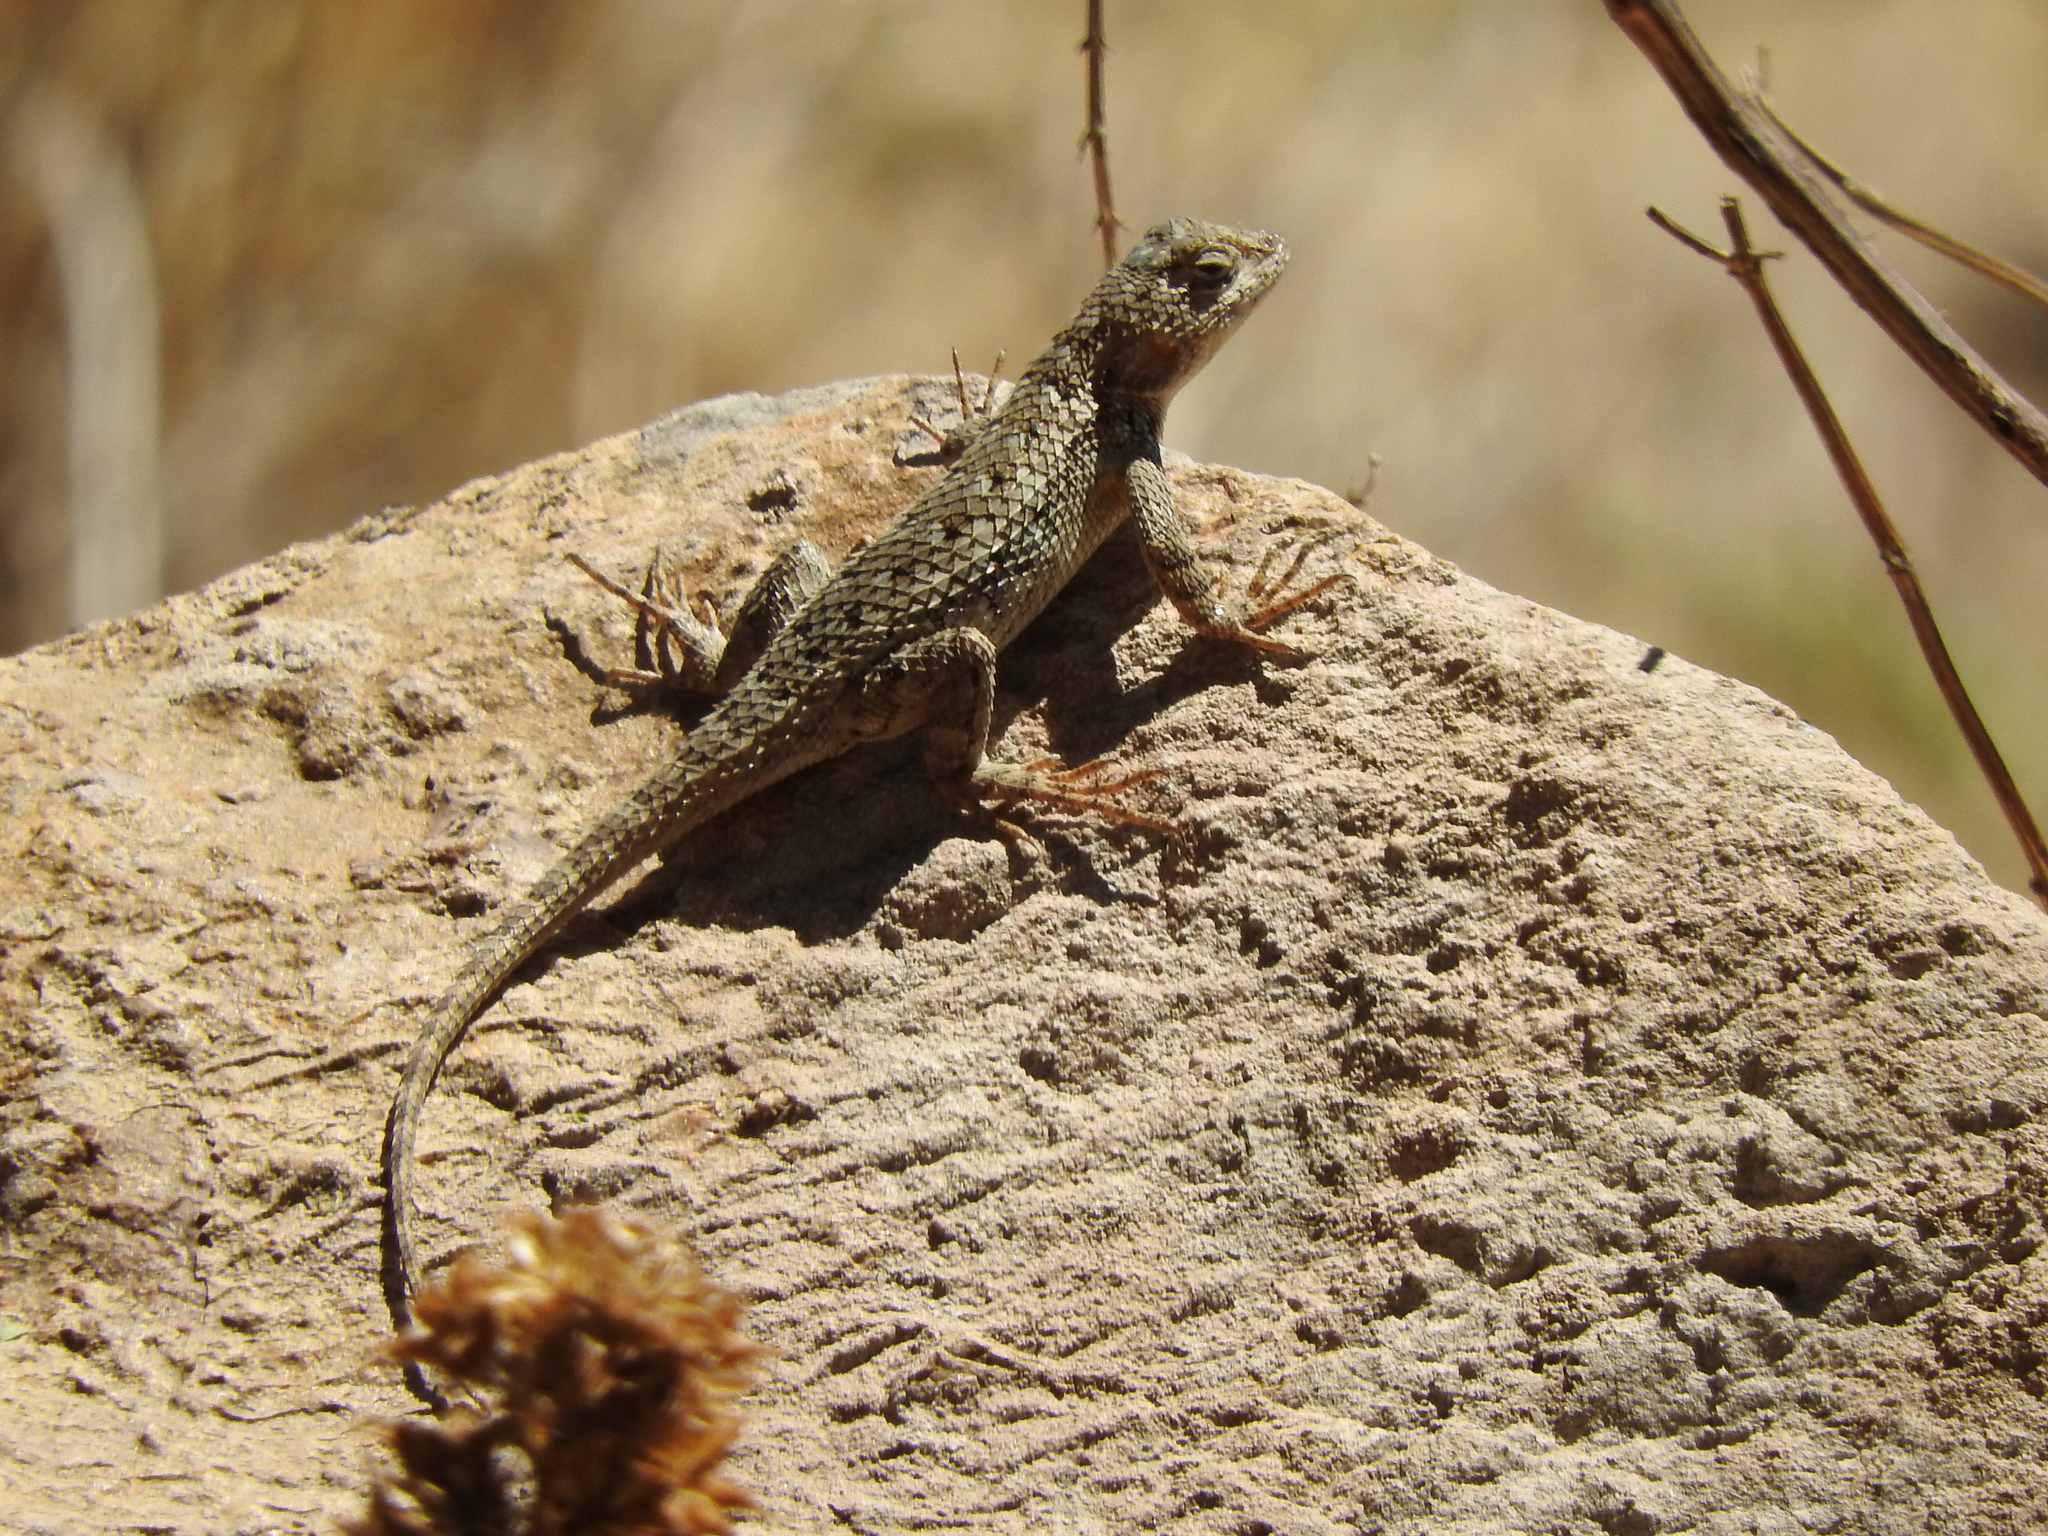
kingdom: Animalia
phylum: Chordata
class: Squamata
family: Phrynosomatidae
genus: Sceloporus
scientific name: Sceloporus spinosus
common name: Blue-spotted spiny lizard [caeruleopunctatus]
